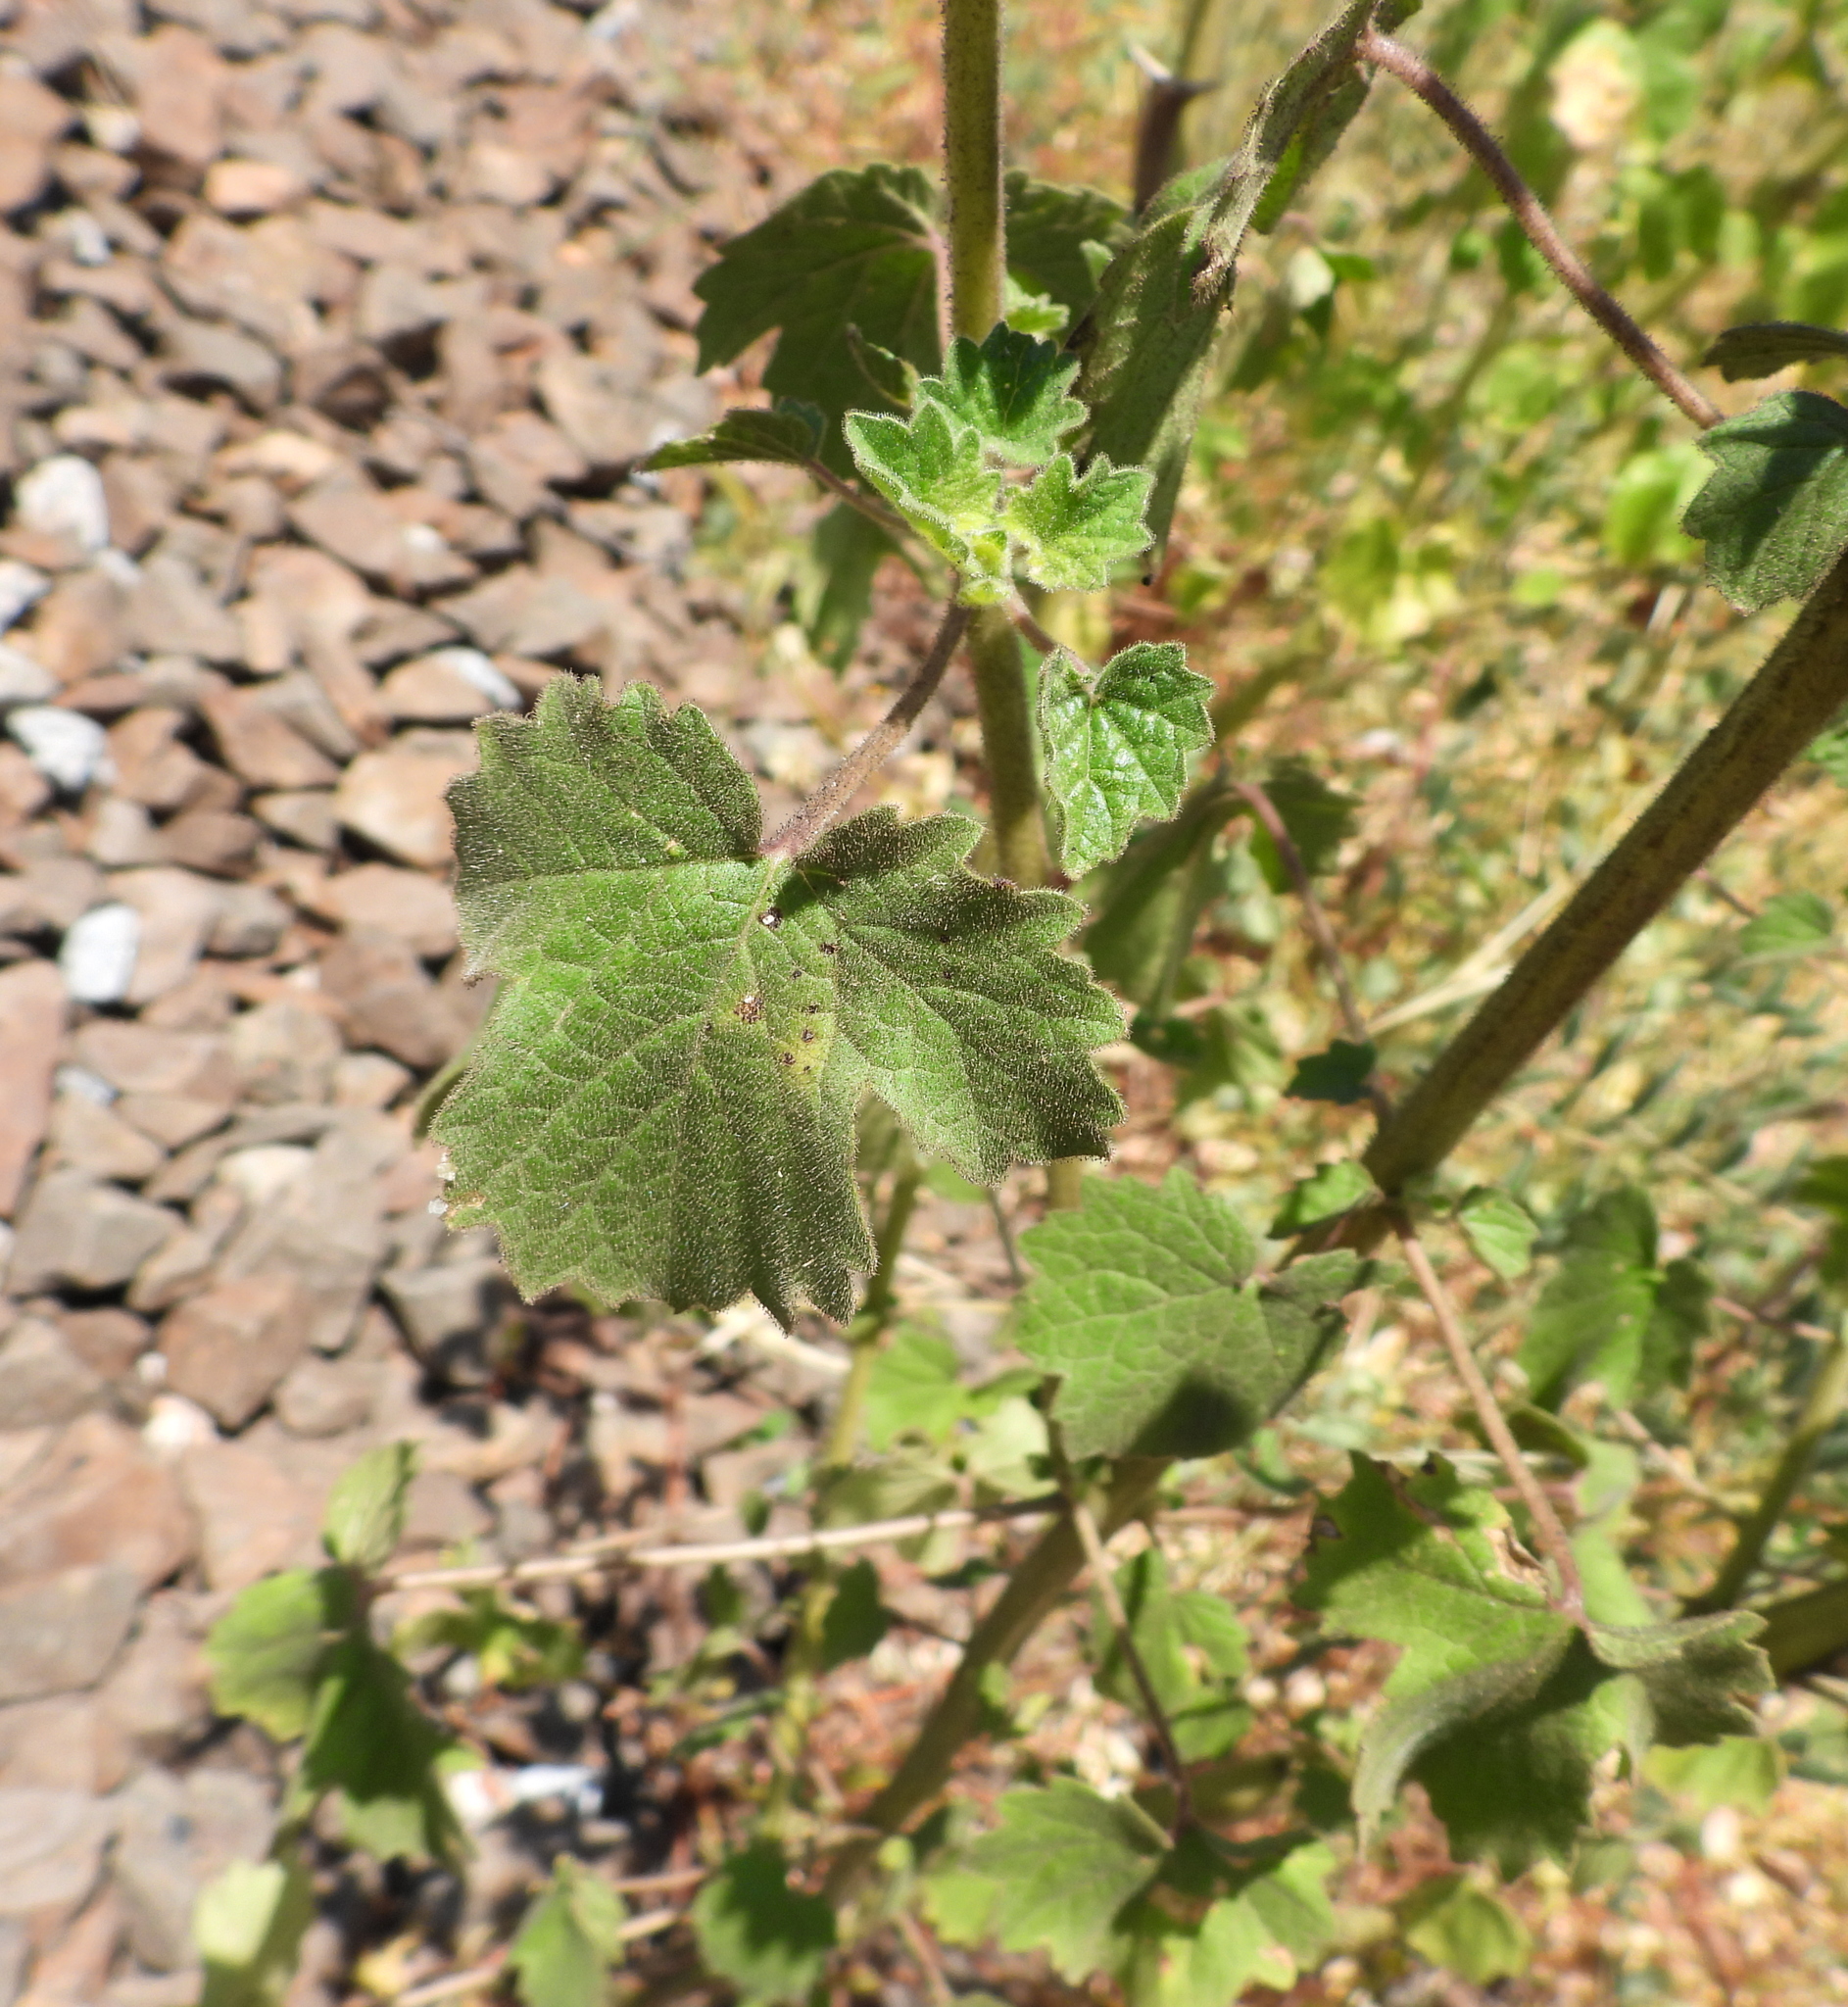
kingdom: Plantae
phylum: Tracheophyta
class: Magnoliopsida
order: Lamiales
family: Pedaliaceae
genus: Sesamum
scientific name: Sesamum trilobum
